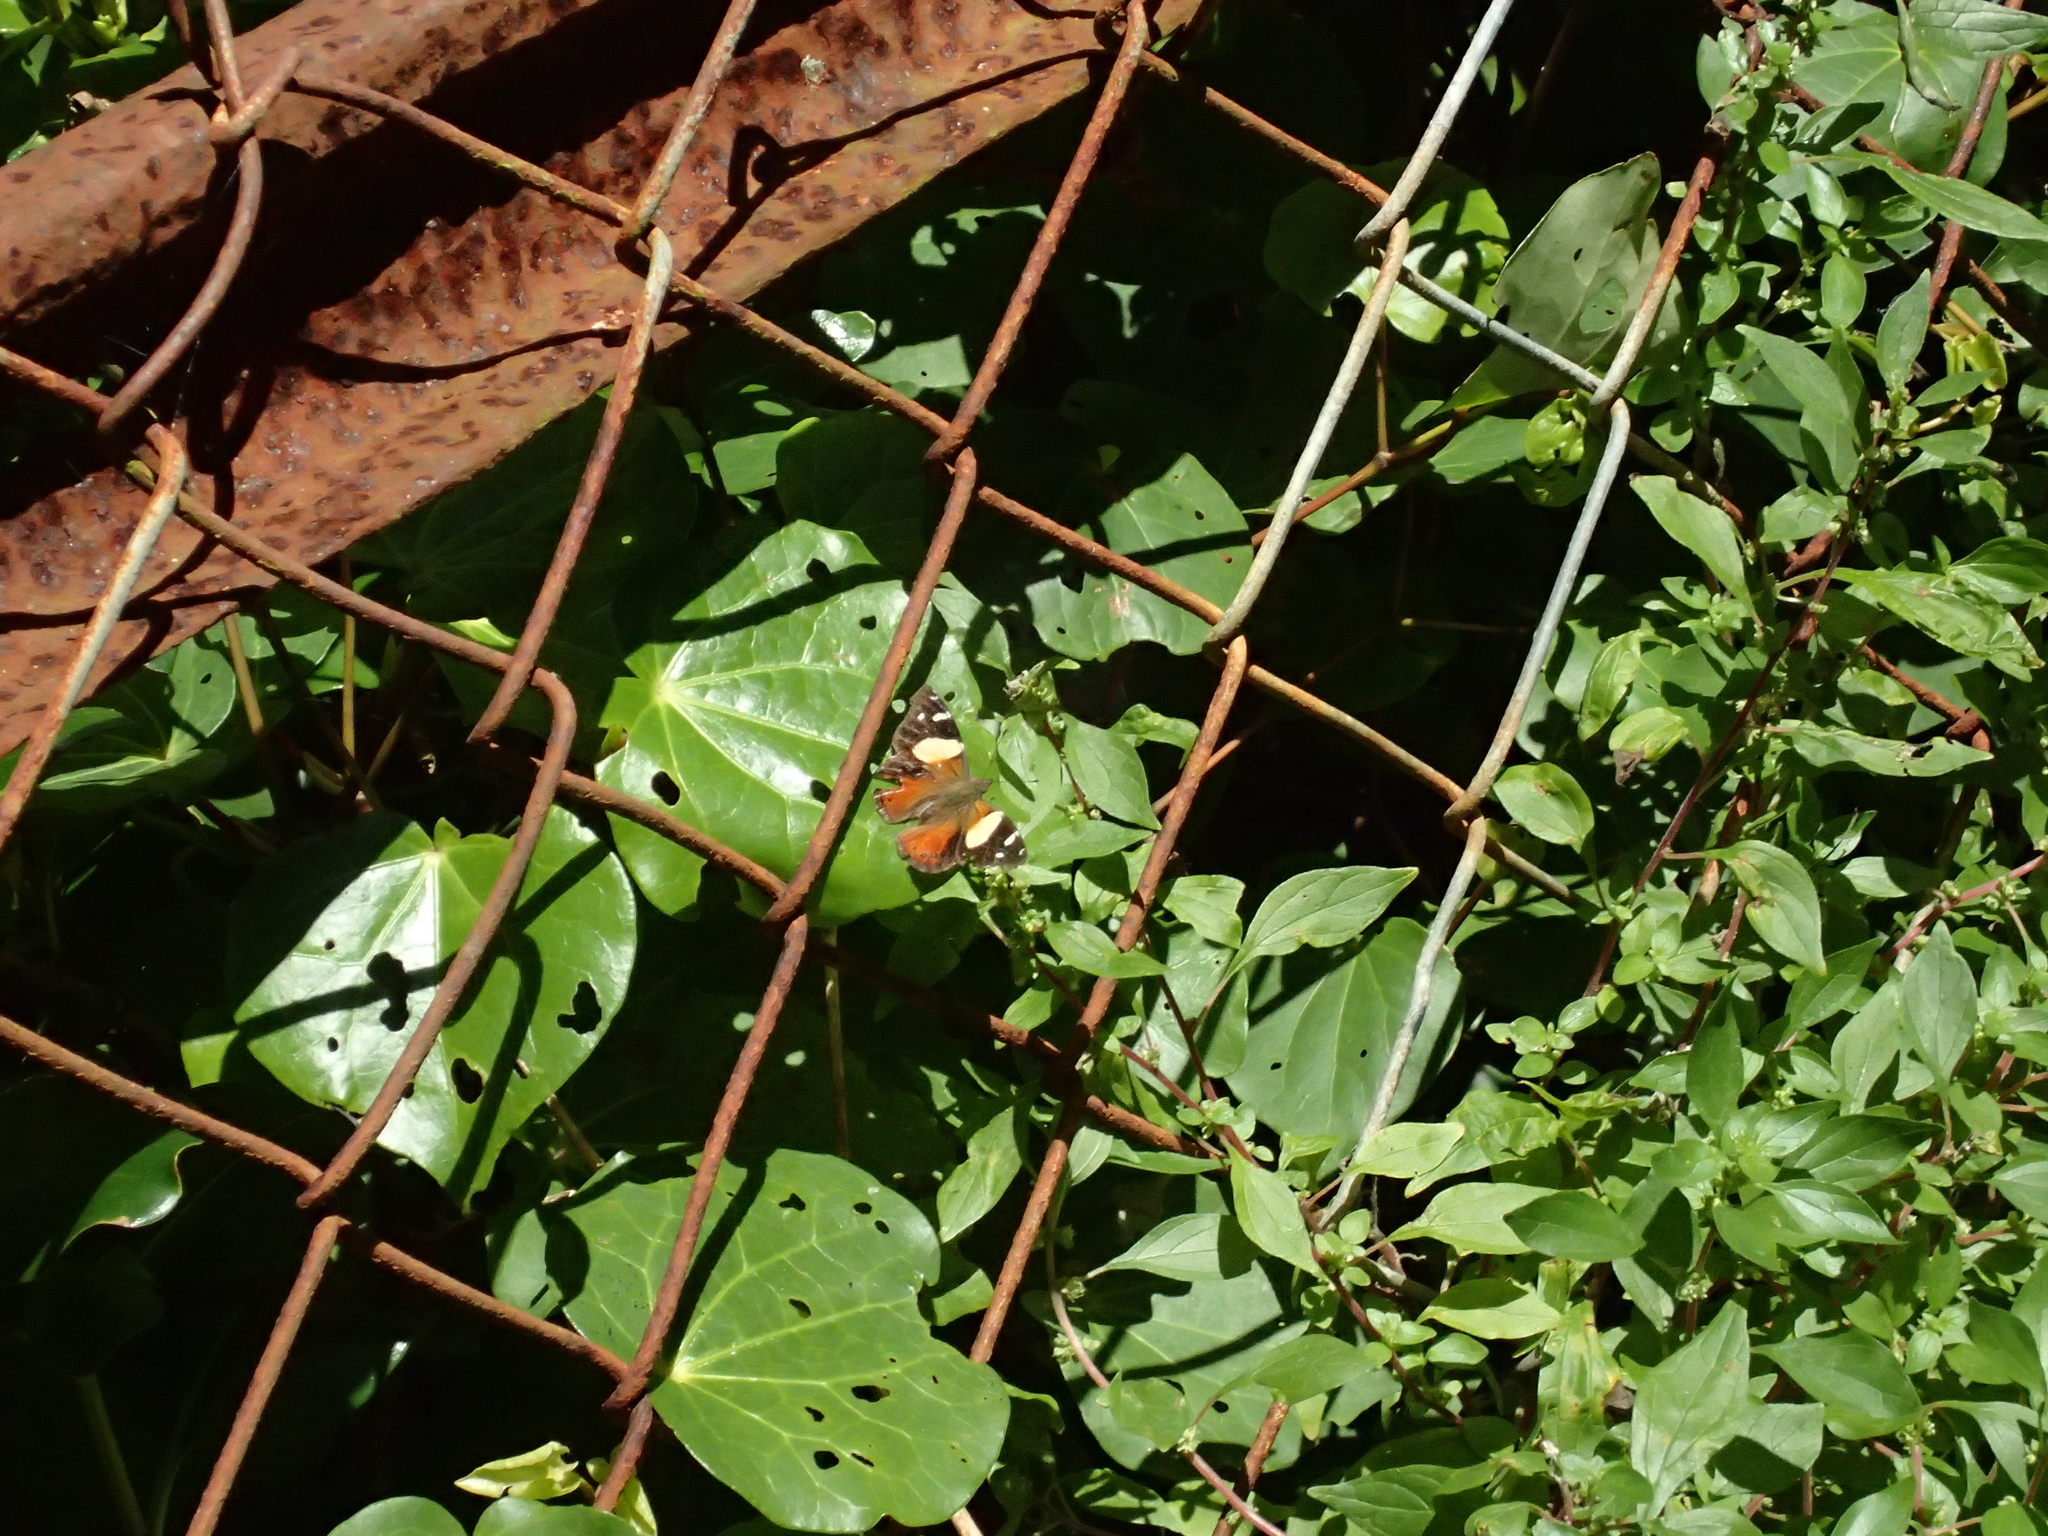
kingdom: Animalia
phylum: Arthropoda
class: Insecta
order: Lepidoptera
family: Nymphalidae
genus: Vanessa
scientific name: Vanessa itea
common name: Yellow admiral
